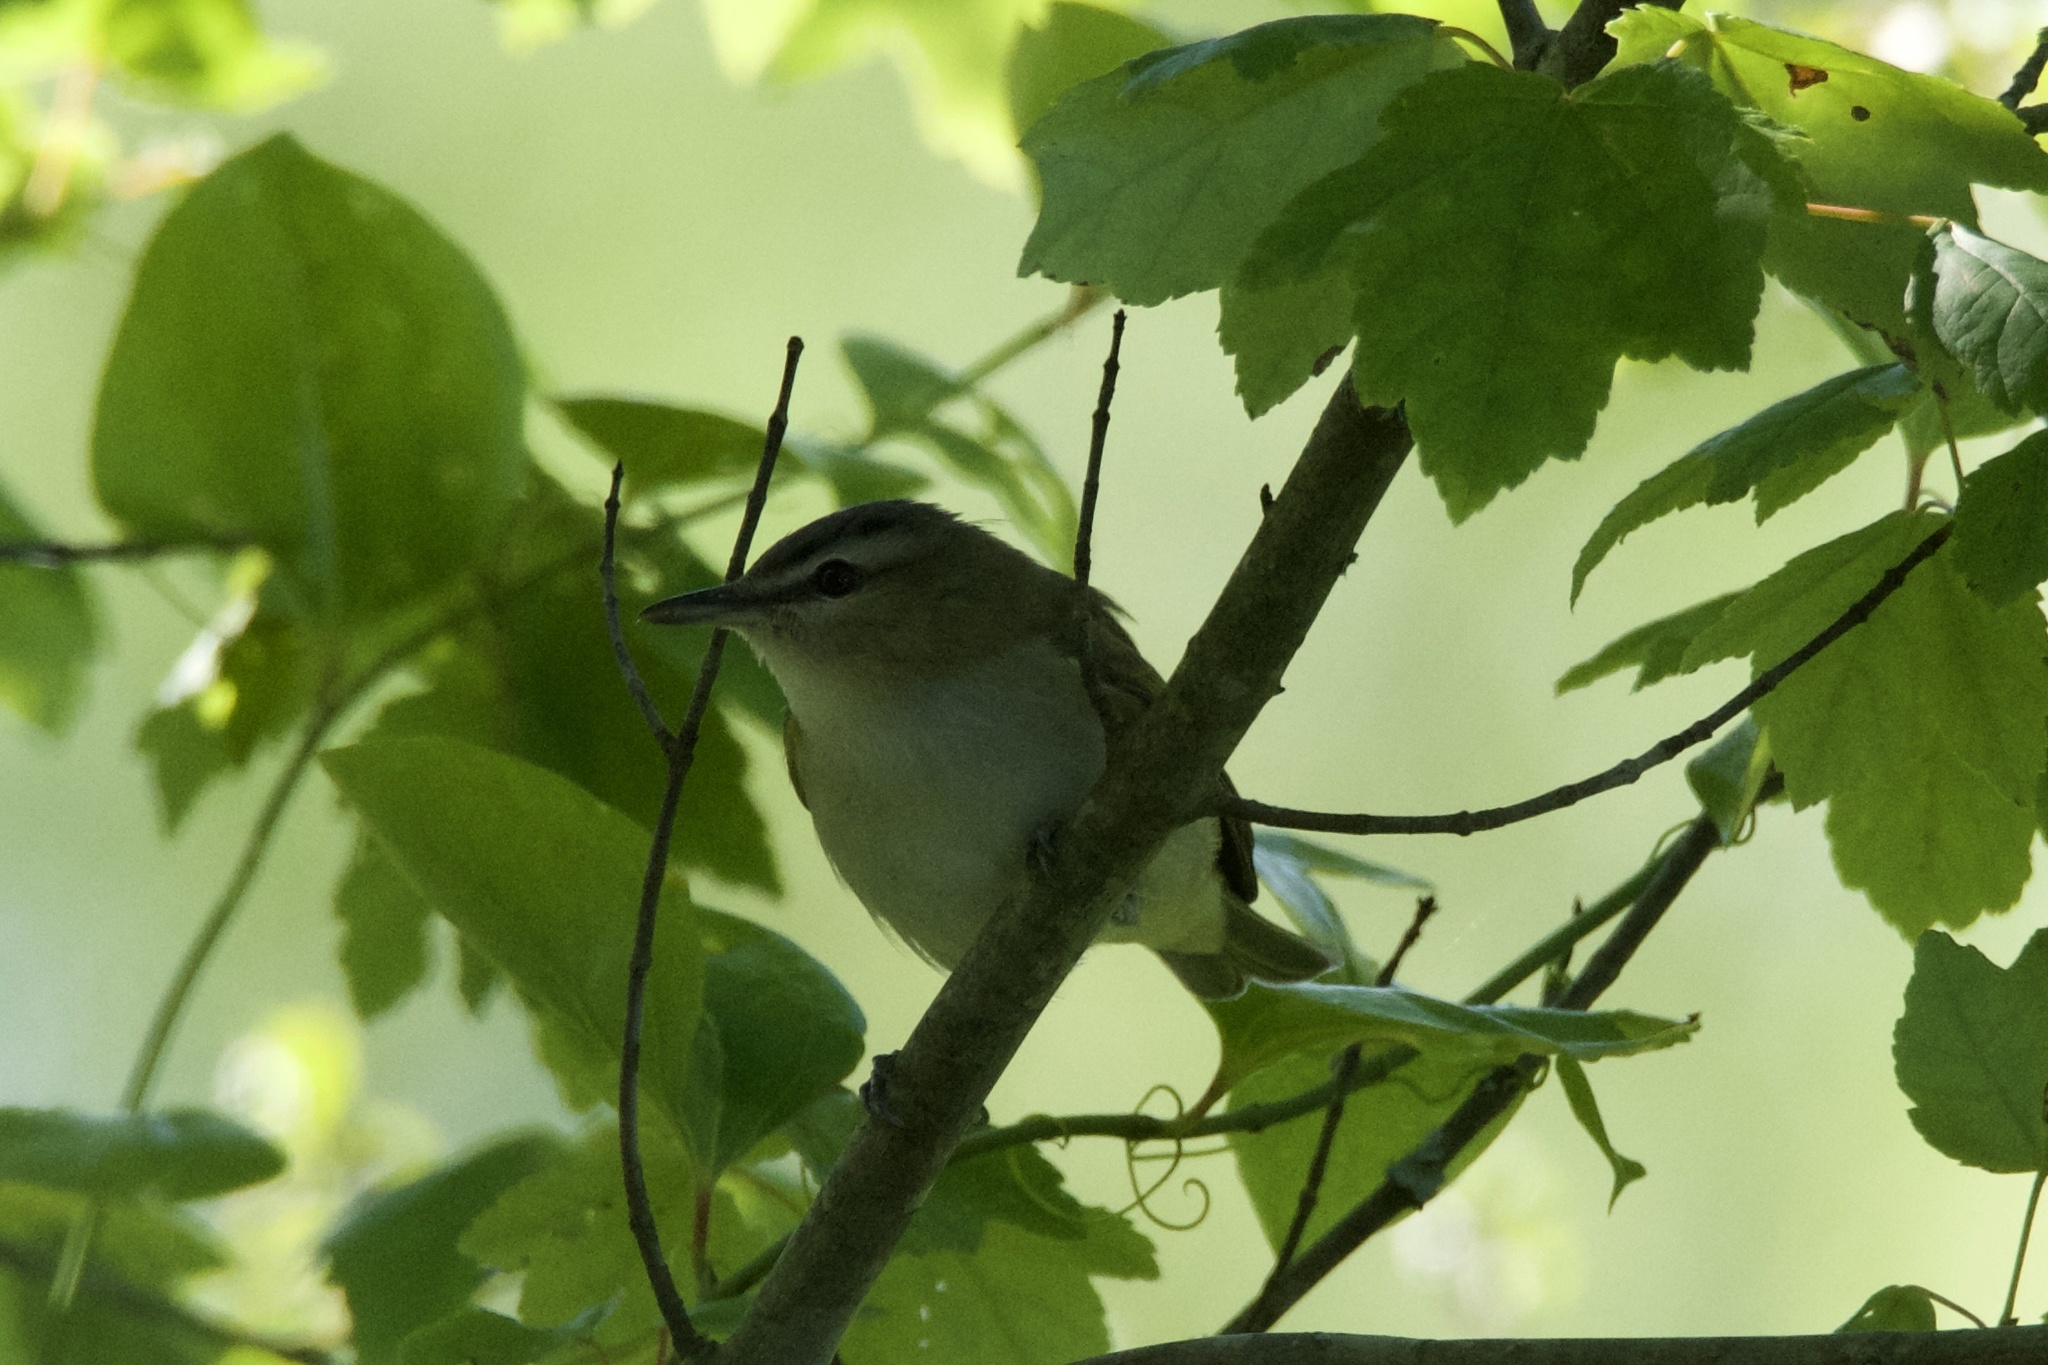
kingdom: Animalia
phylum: Chordata
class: Aves
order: Passeriformes
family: Vireonidae
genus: Vireo
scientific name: Vireo olivaceus
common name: Red-eyed vireo
